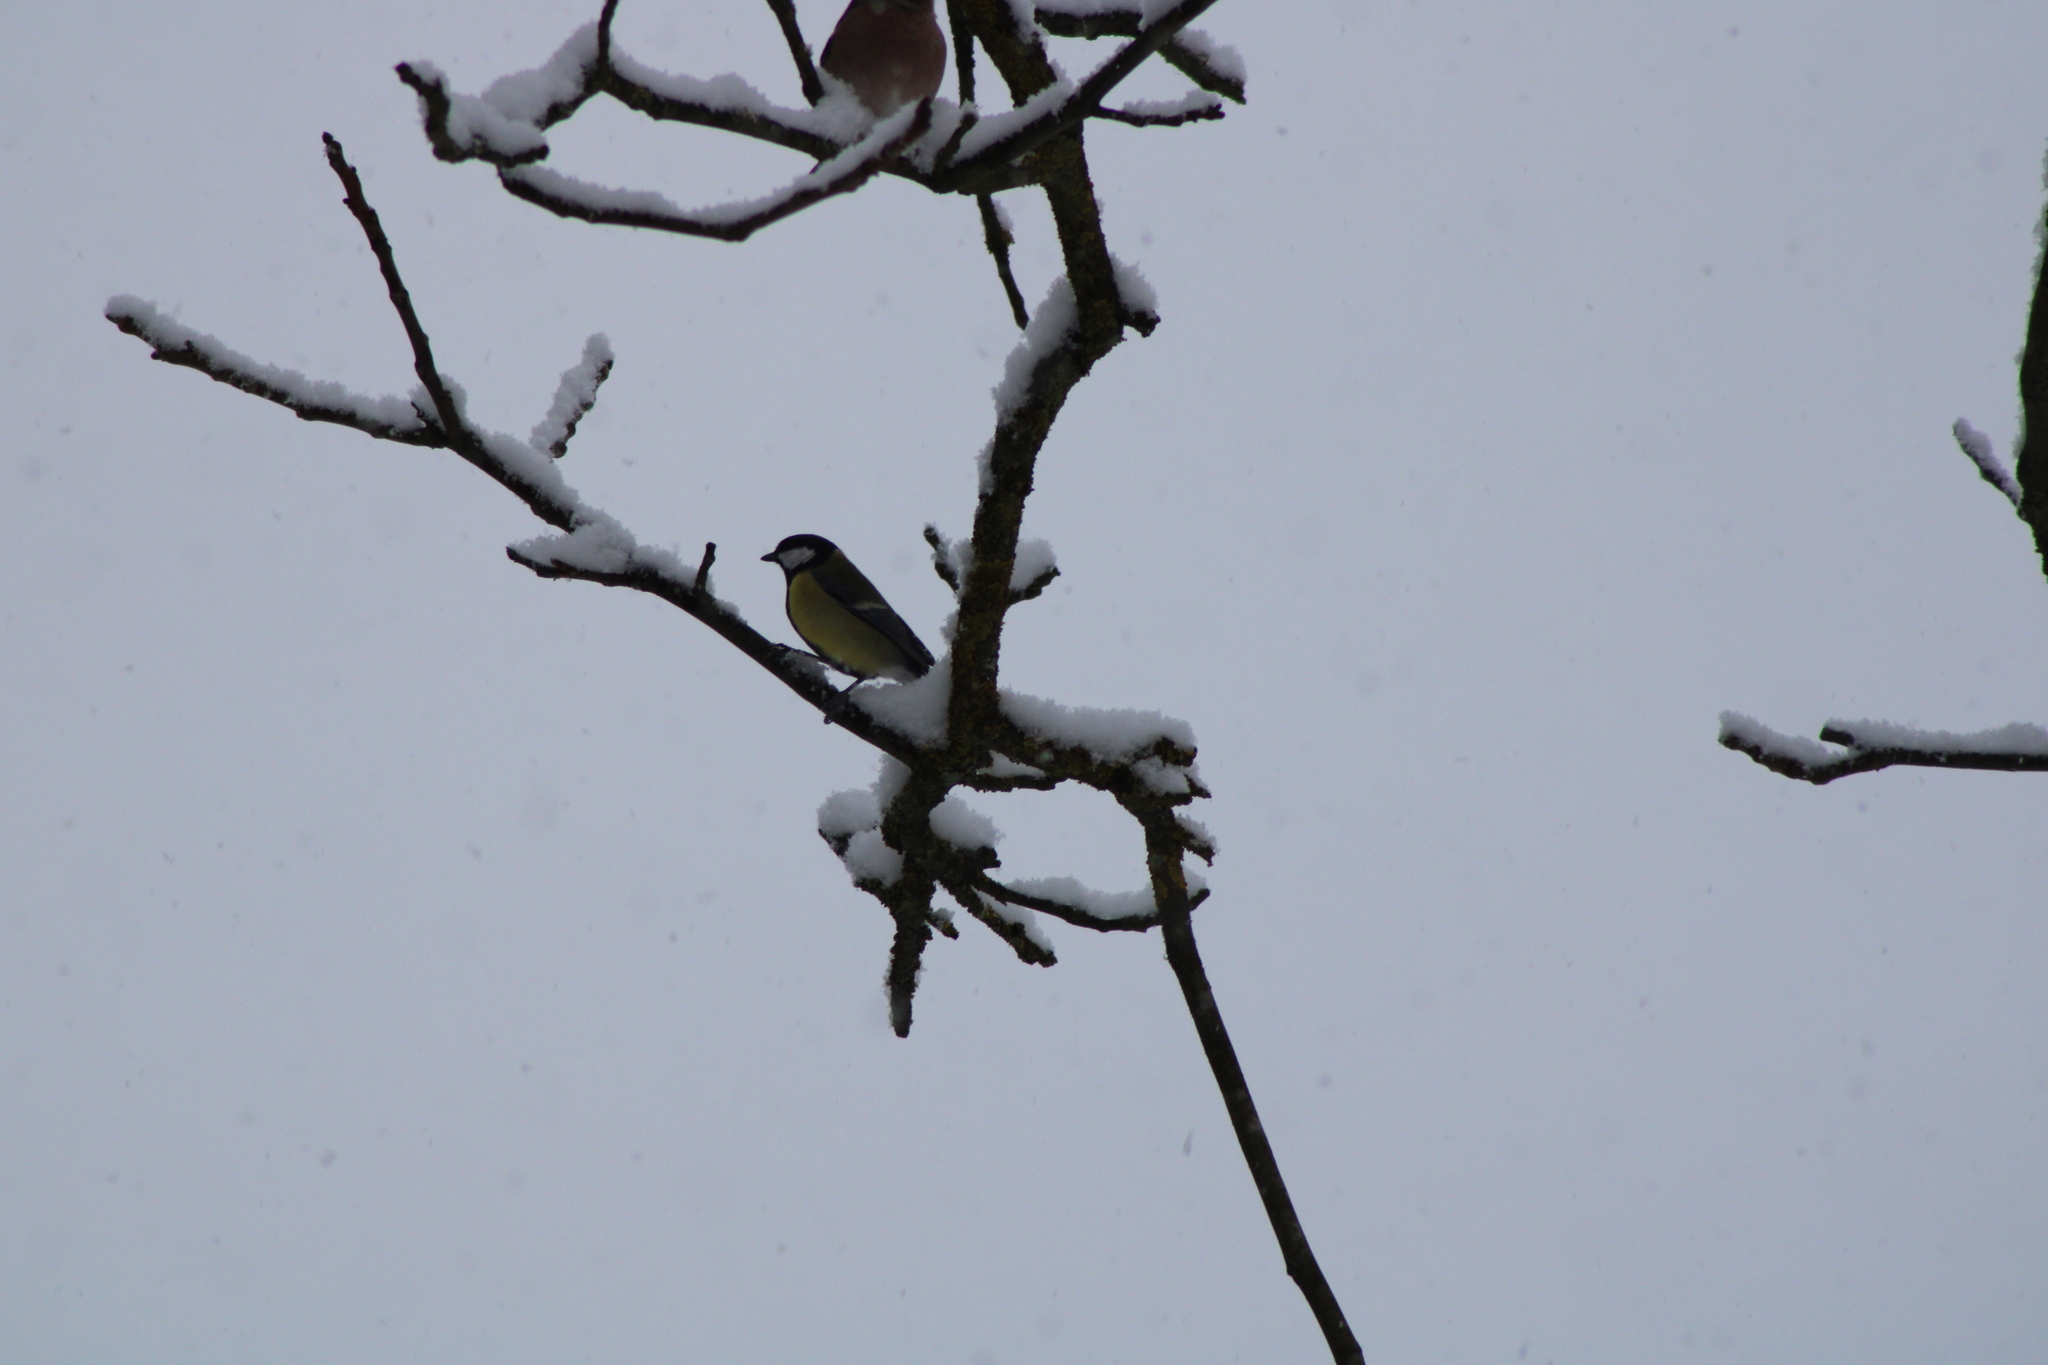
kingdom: Animalia
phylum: Chordata
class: Aves
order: Passeriformes
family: Paridae
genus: Parus
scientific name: Parus major
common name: Great tit
